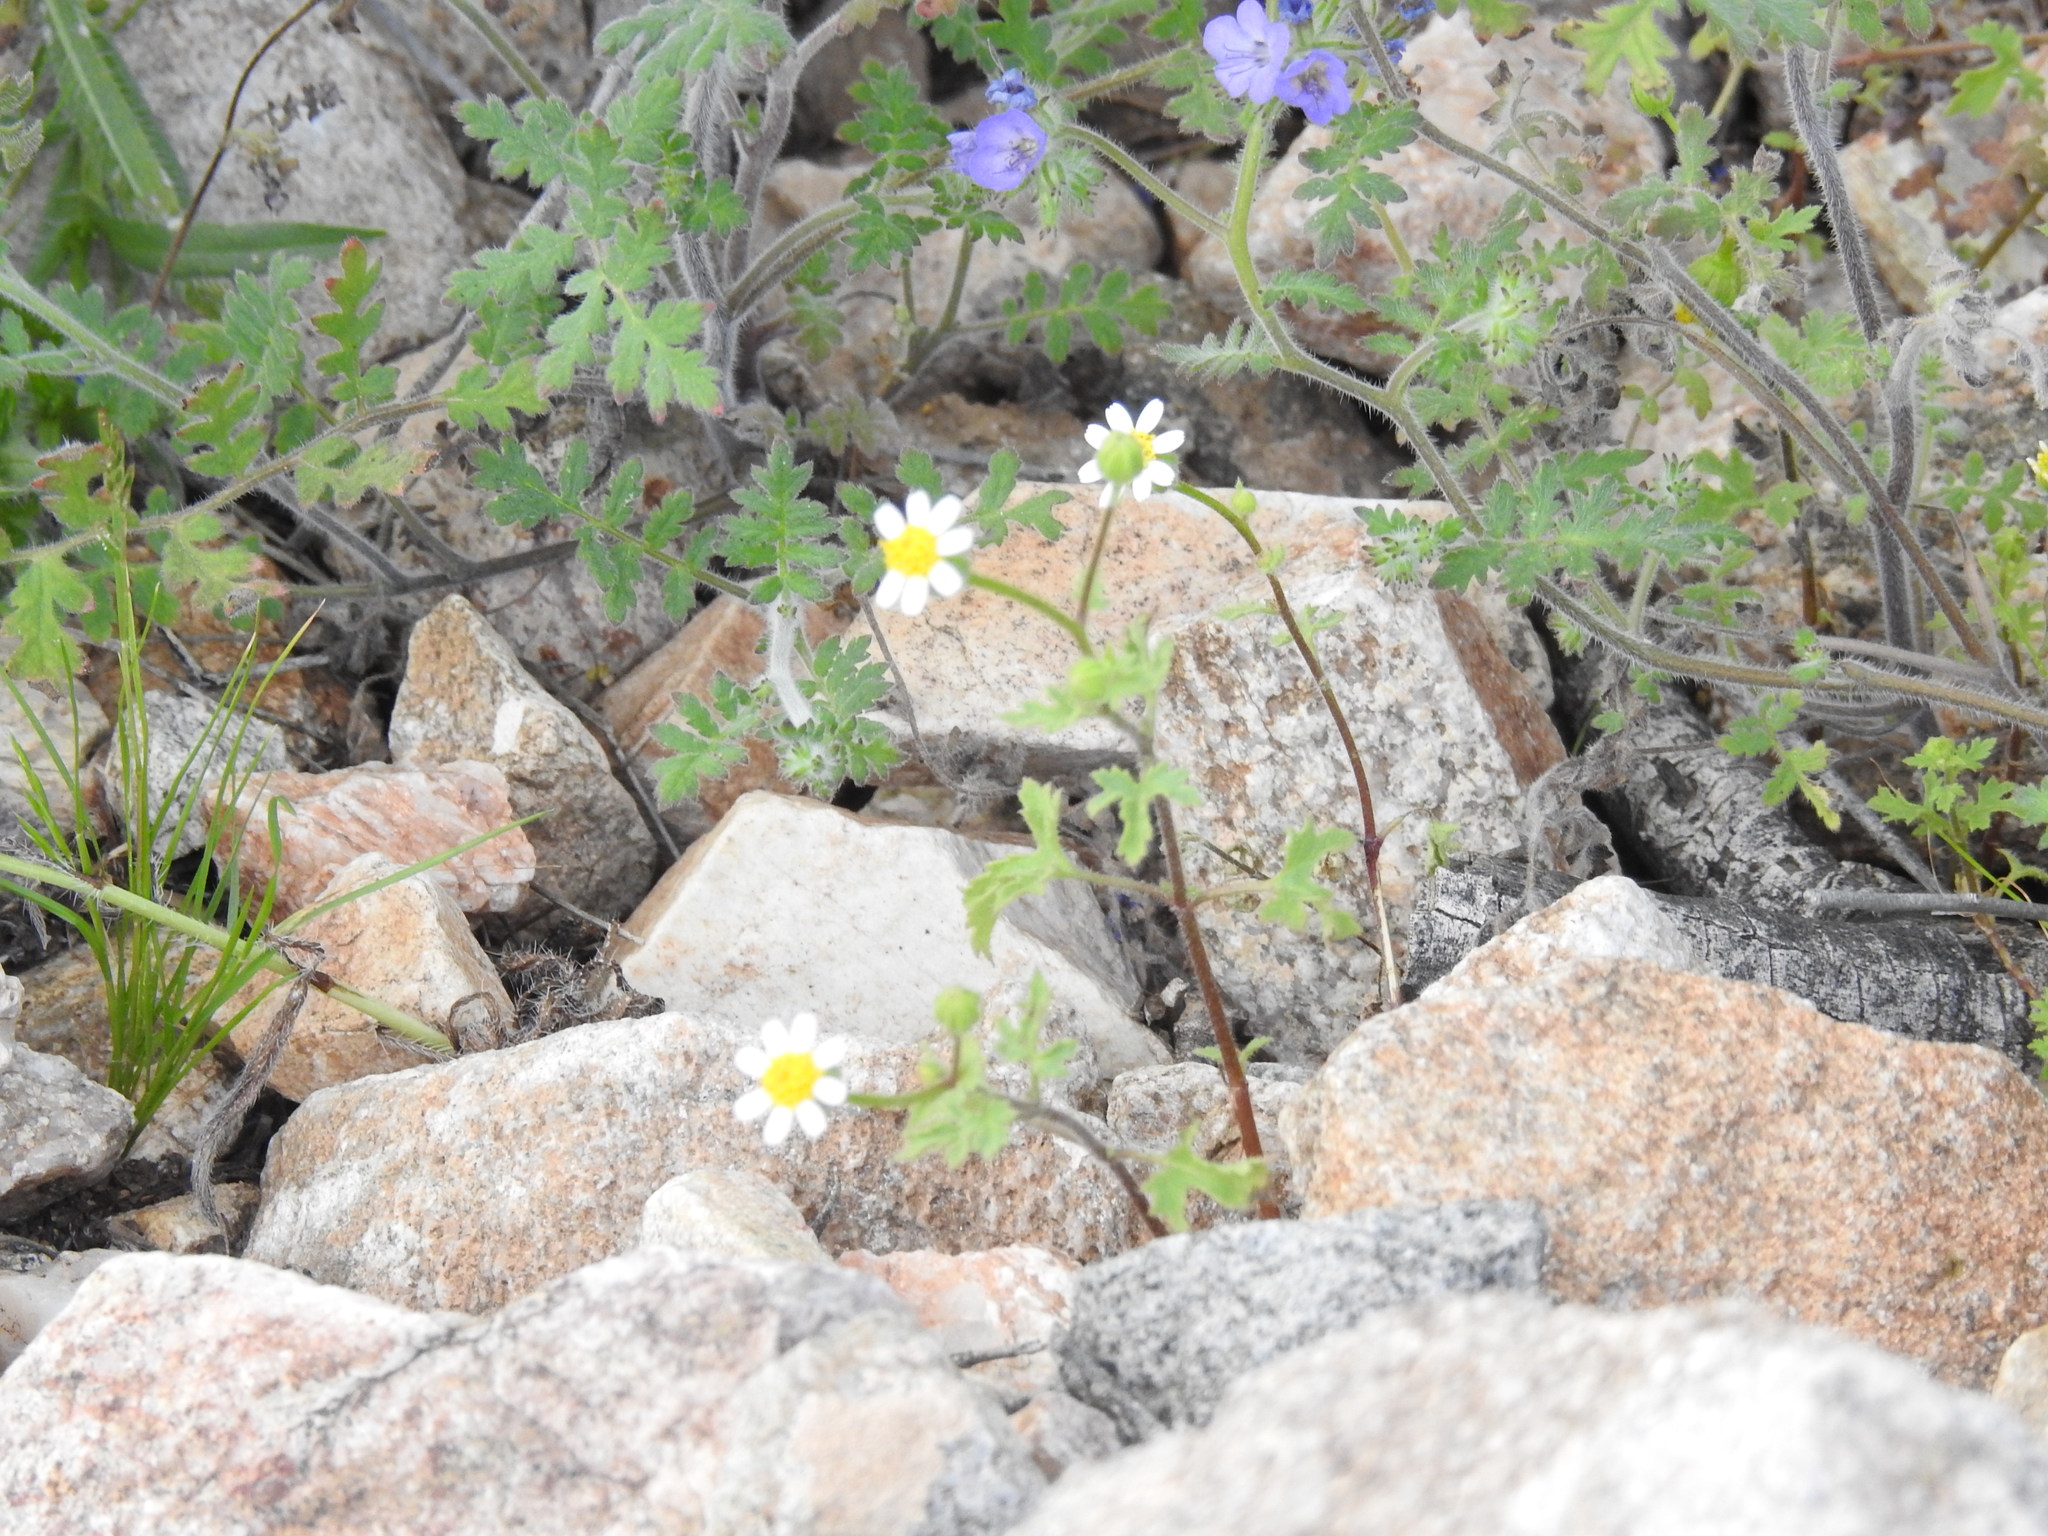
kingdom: Plantae
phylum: Tracheophyta
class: Magnoliopsida
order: Asterales
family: Asteraceae
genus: Laphamia
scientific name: Laphamia emoryi
